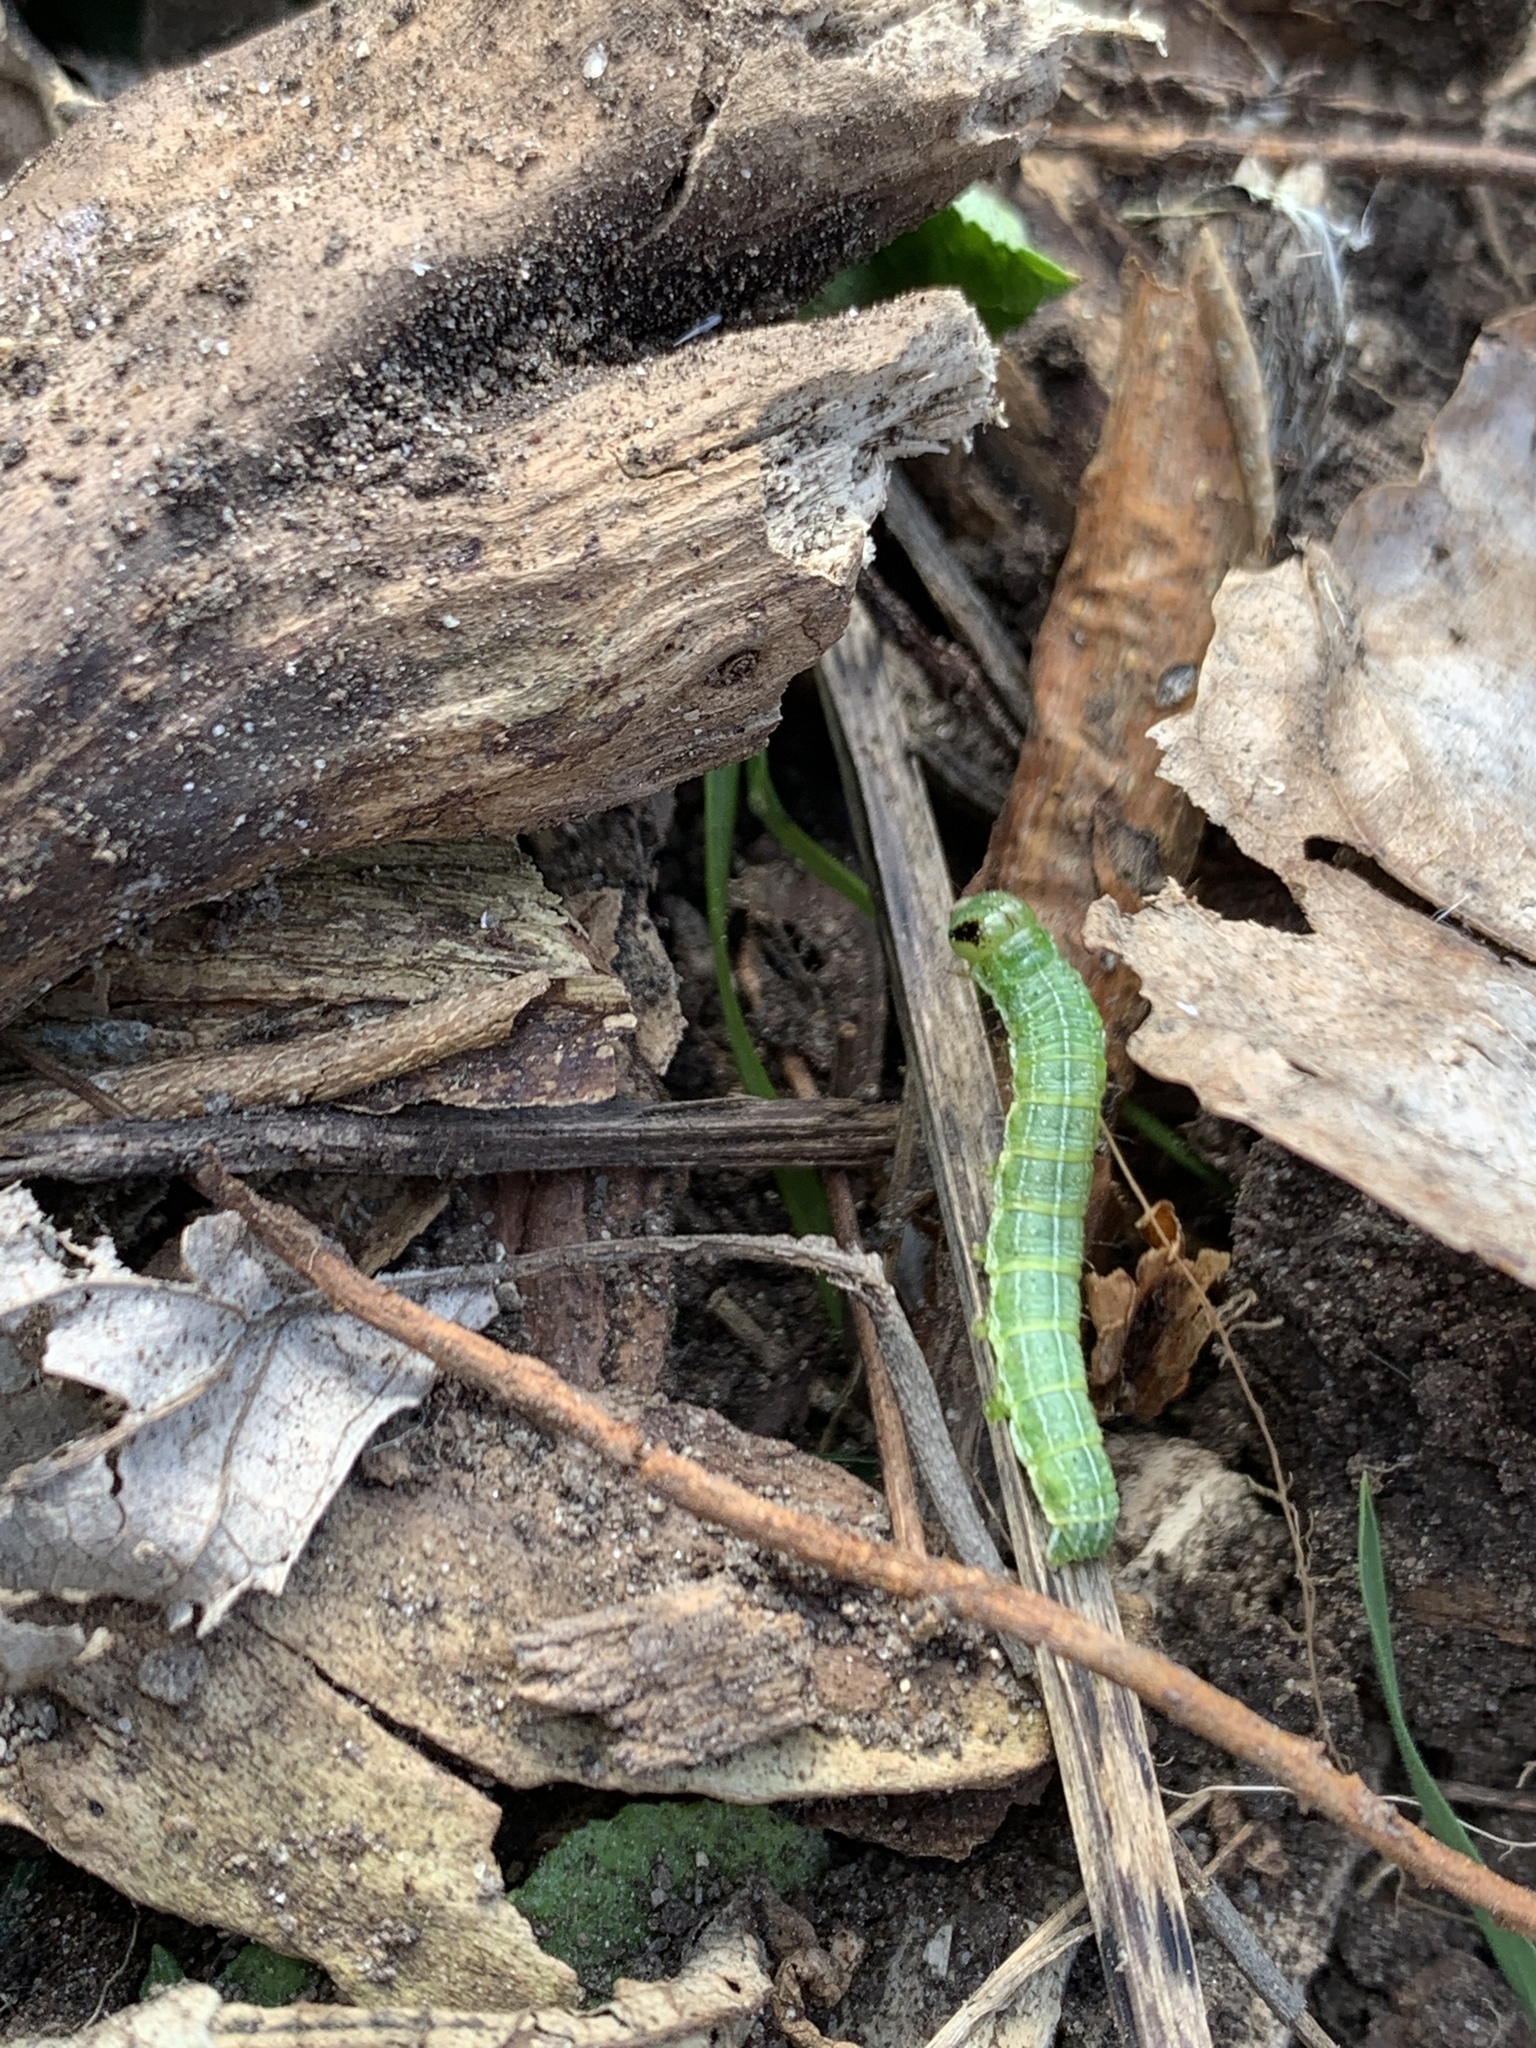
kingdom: Animalia
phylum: Arthropoda
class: Insecta
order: Lepidoptera
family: Noctuidae
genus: Loscopia
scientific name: Loscopia velata
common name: Veiled ear moth
